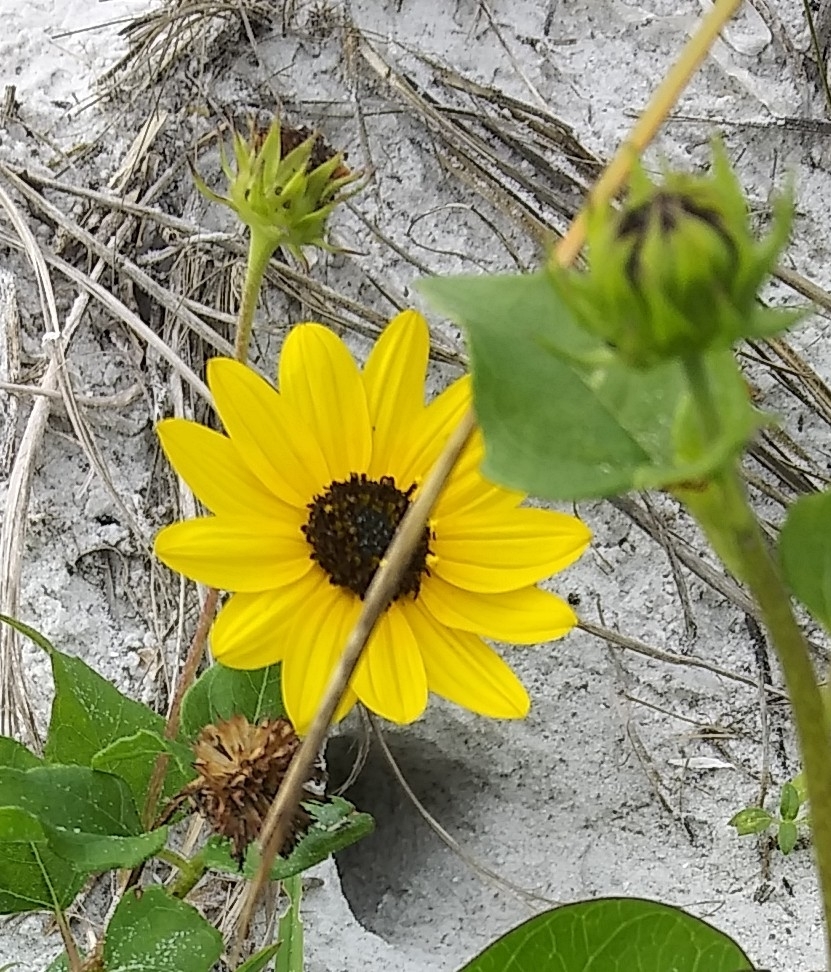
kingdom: Plantae
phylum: Tracheophyta
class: Magnoliopsida
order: Asterales
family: Asteraceae
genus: Helianthus
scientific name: Helianthus debilis
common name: Weak sunflower
